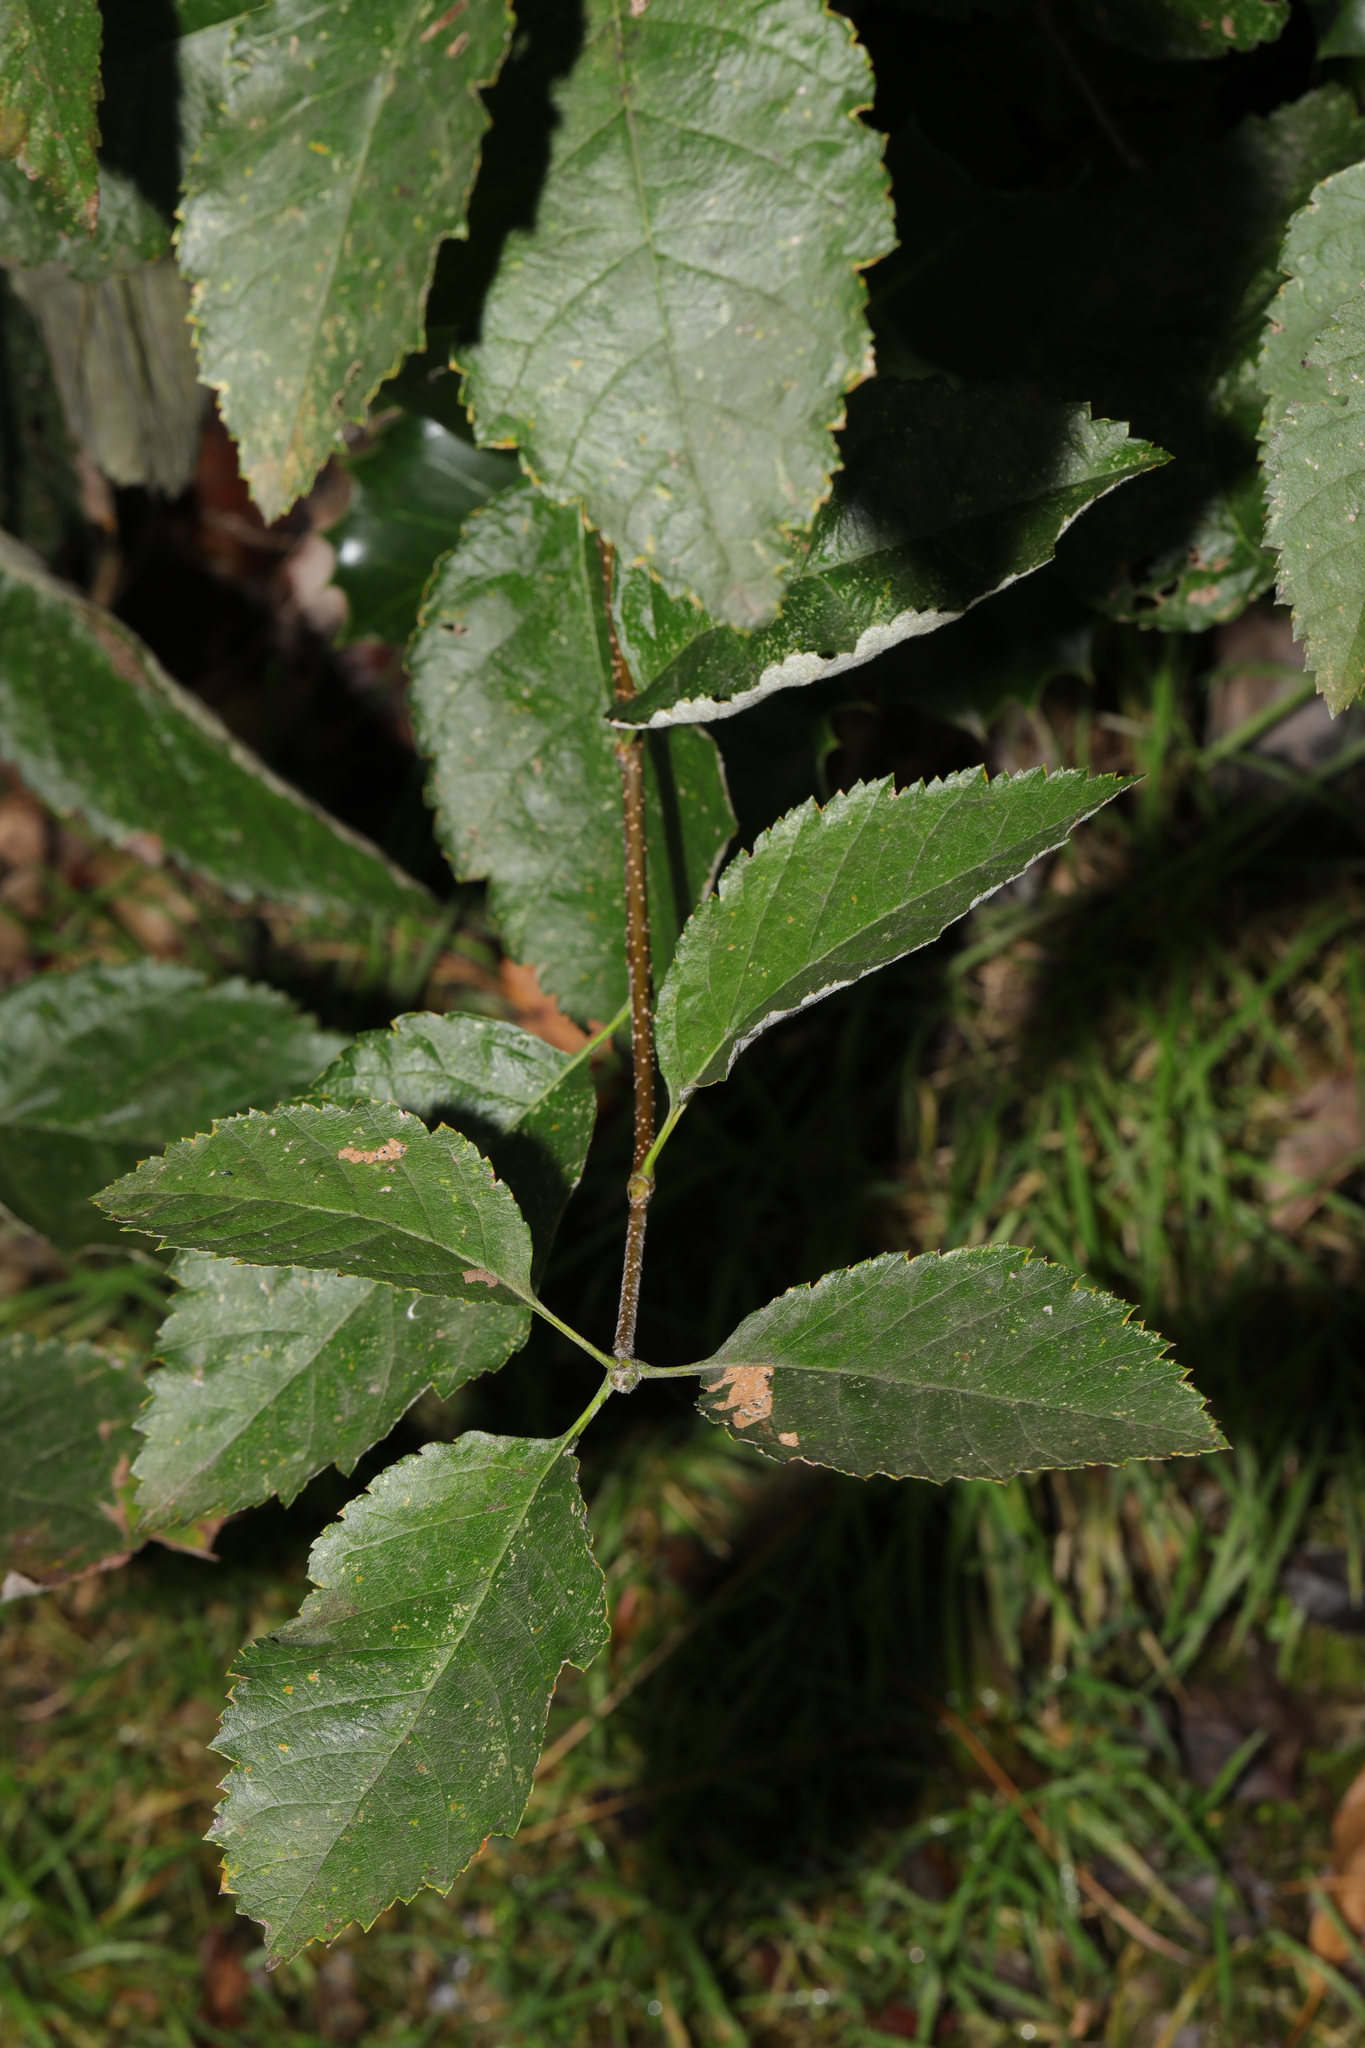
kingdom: Plantae
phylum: Tracheophyta
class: Magnoliopsida
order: Rosales
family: Rosaceae
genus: Scandosorbus
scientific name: Scandosorbus intermedia
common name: Swedish whitebeam
